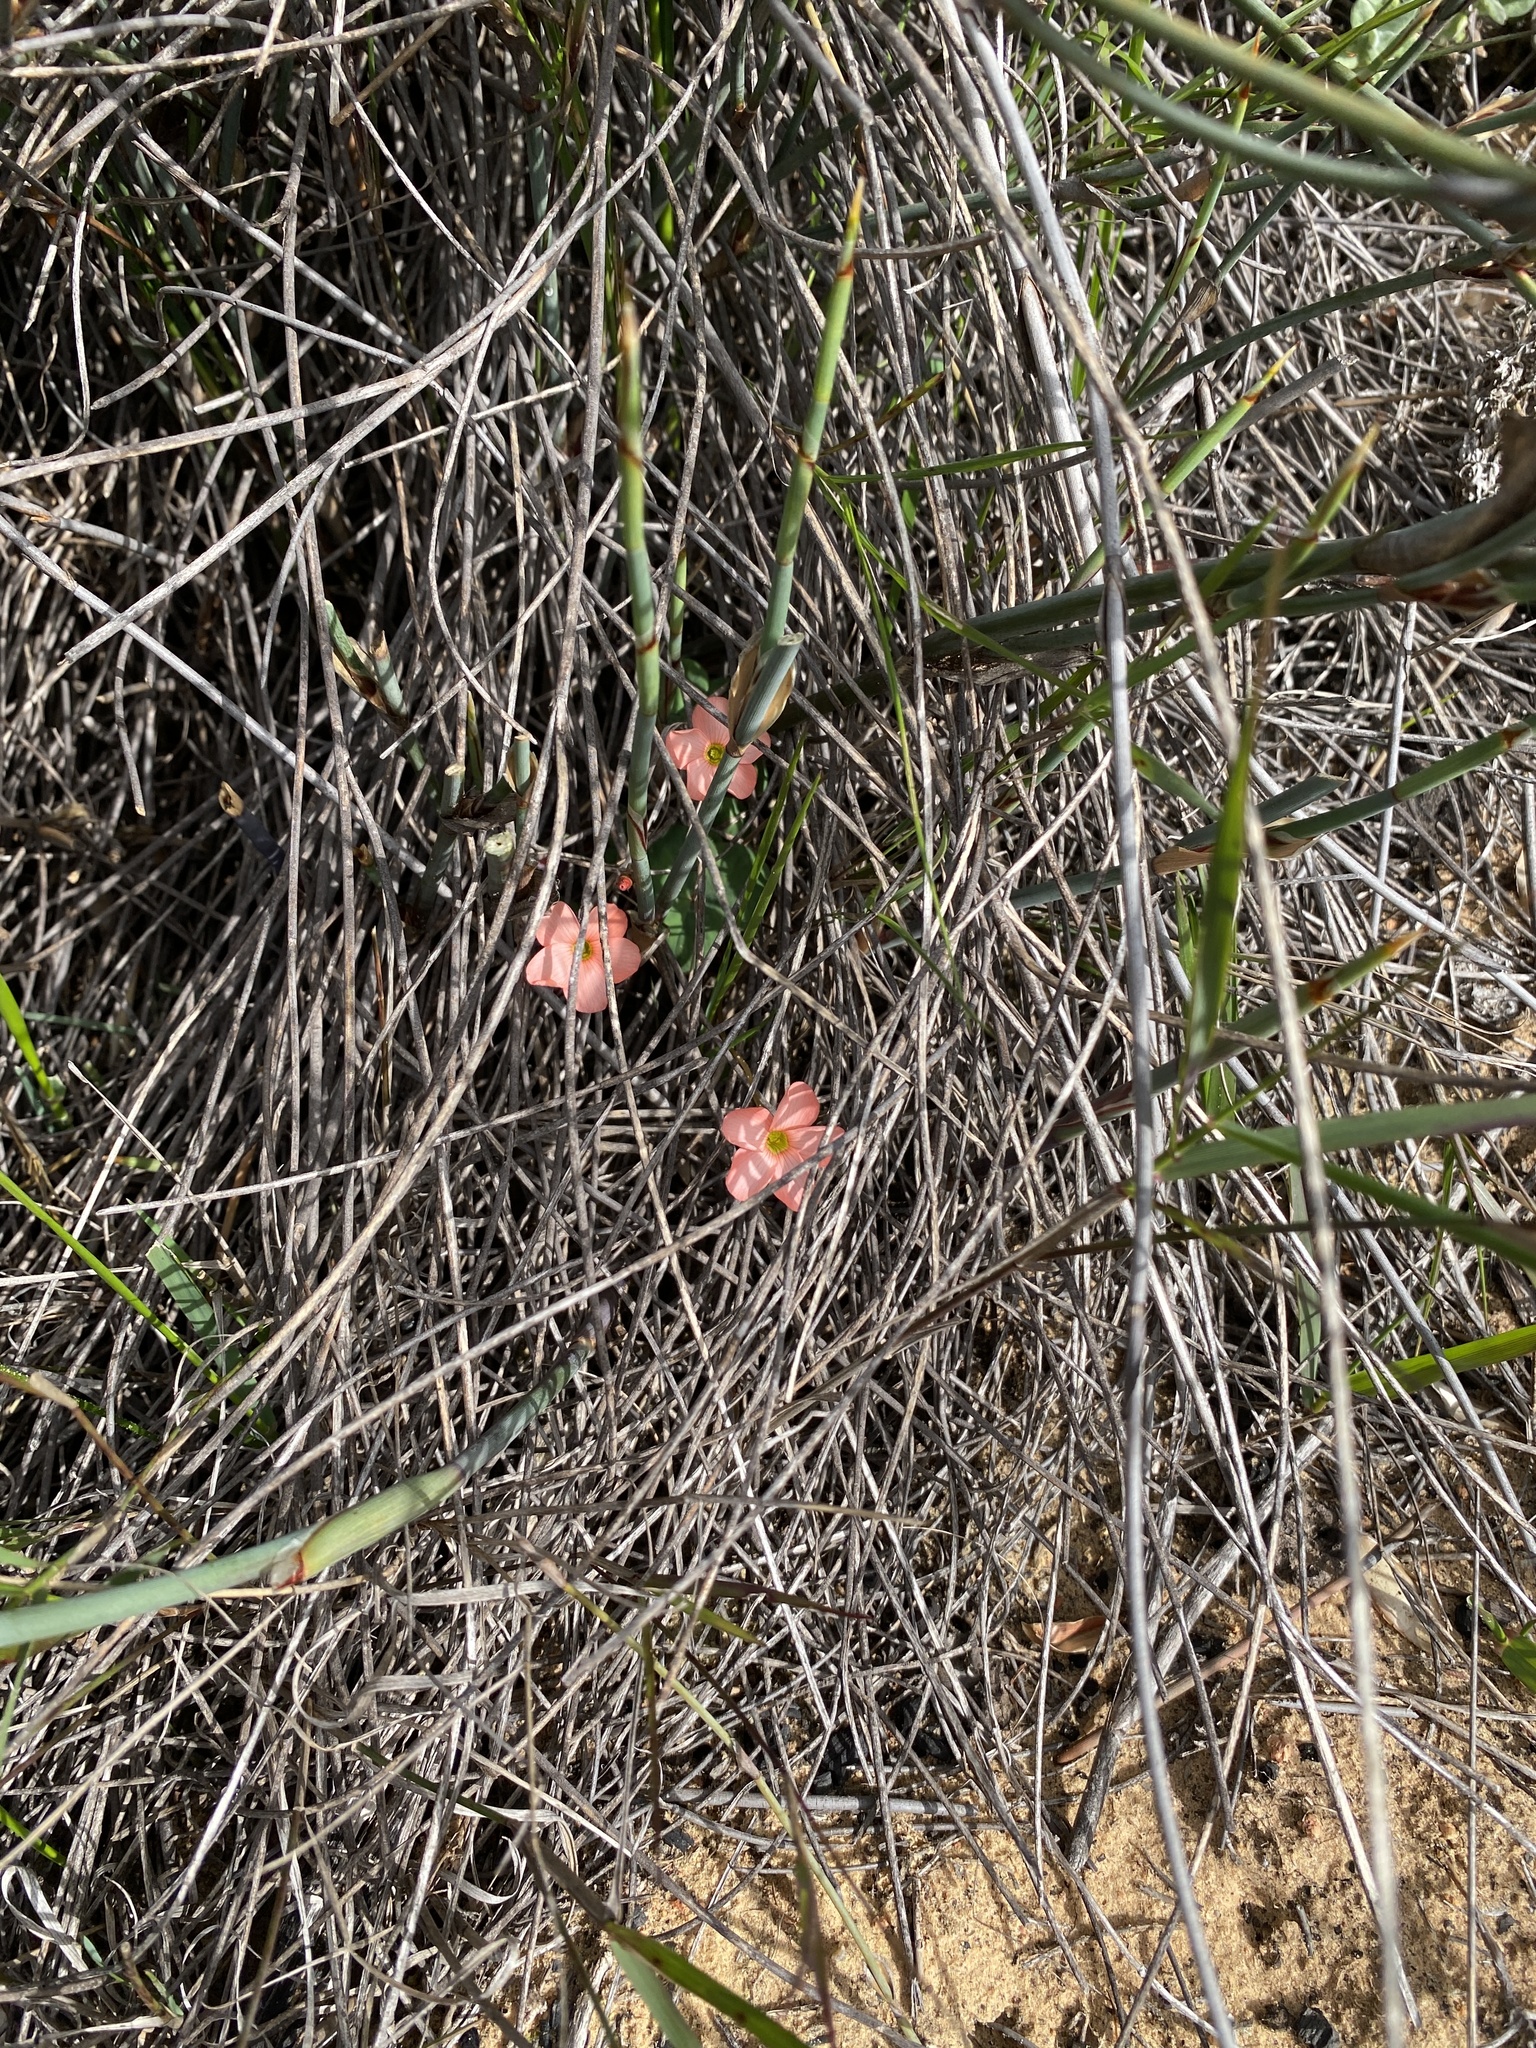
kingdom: Plantae
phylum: Tracheophyta
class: Magnoliopsida
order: Oxalidales
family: Oxalidaceae
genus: Oxalis
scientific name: Oxalis eckloniana
